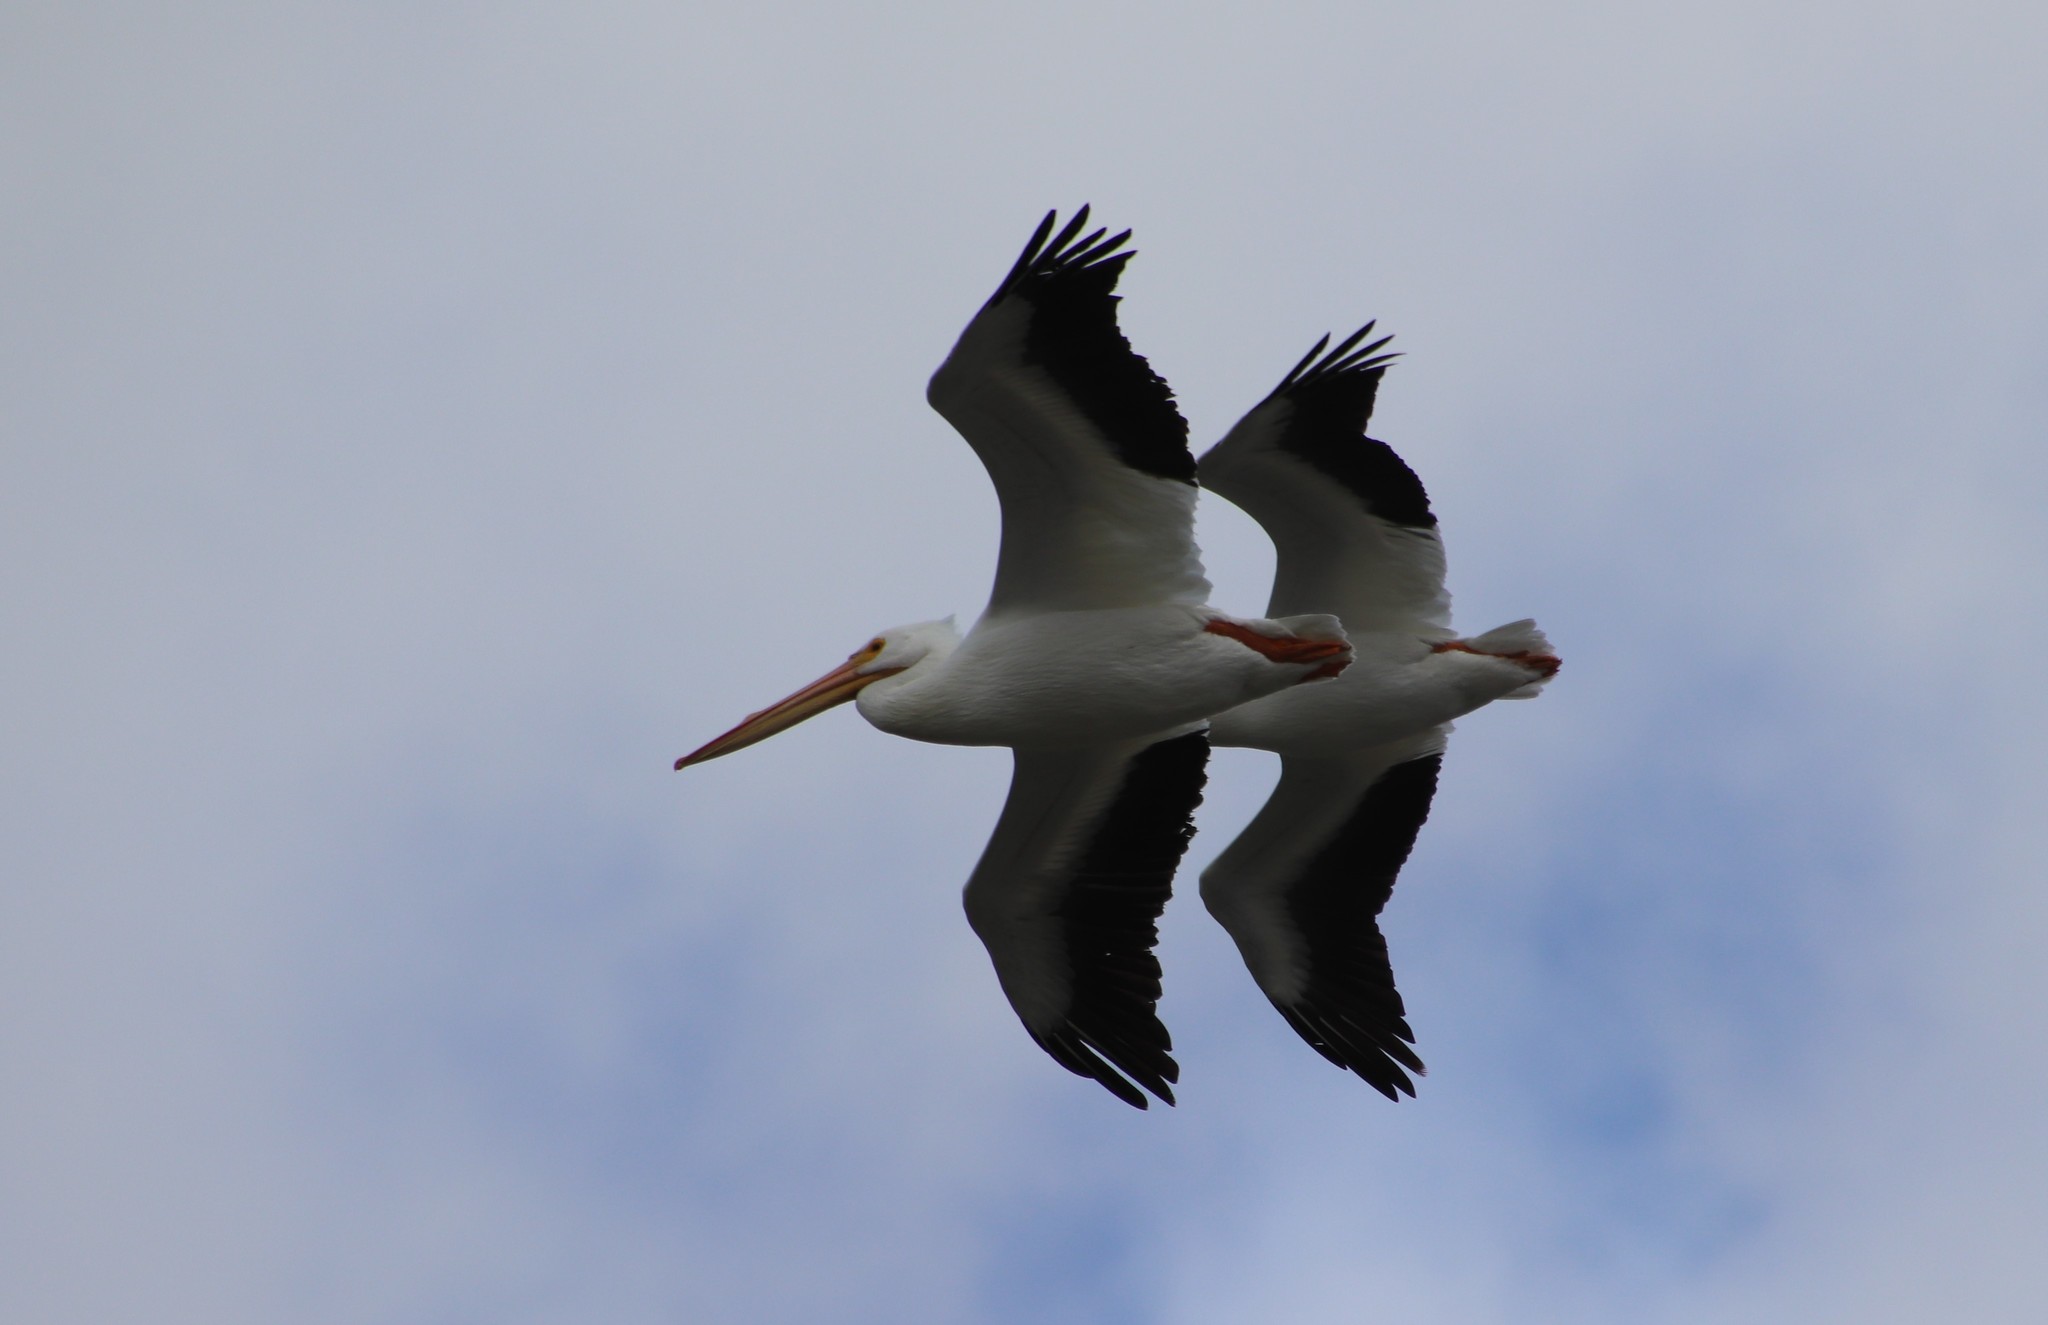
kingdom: Animalia
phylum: Chordata
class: Aves
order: Pelecaniformes
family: Pelecanidae
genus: Pelecanus
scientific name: Pelecanus erythrorhynchos
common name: American white pelican
